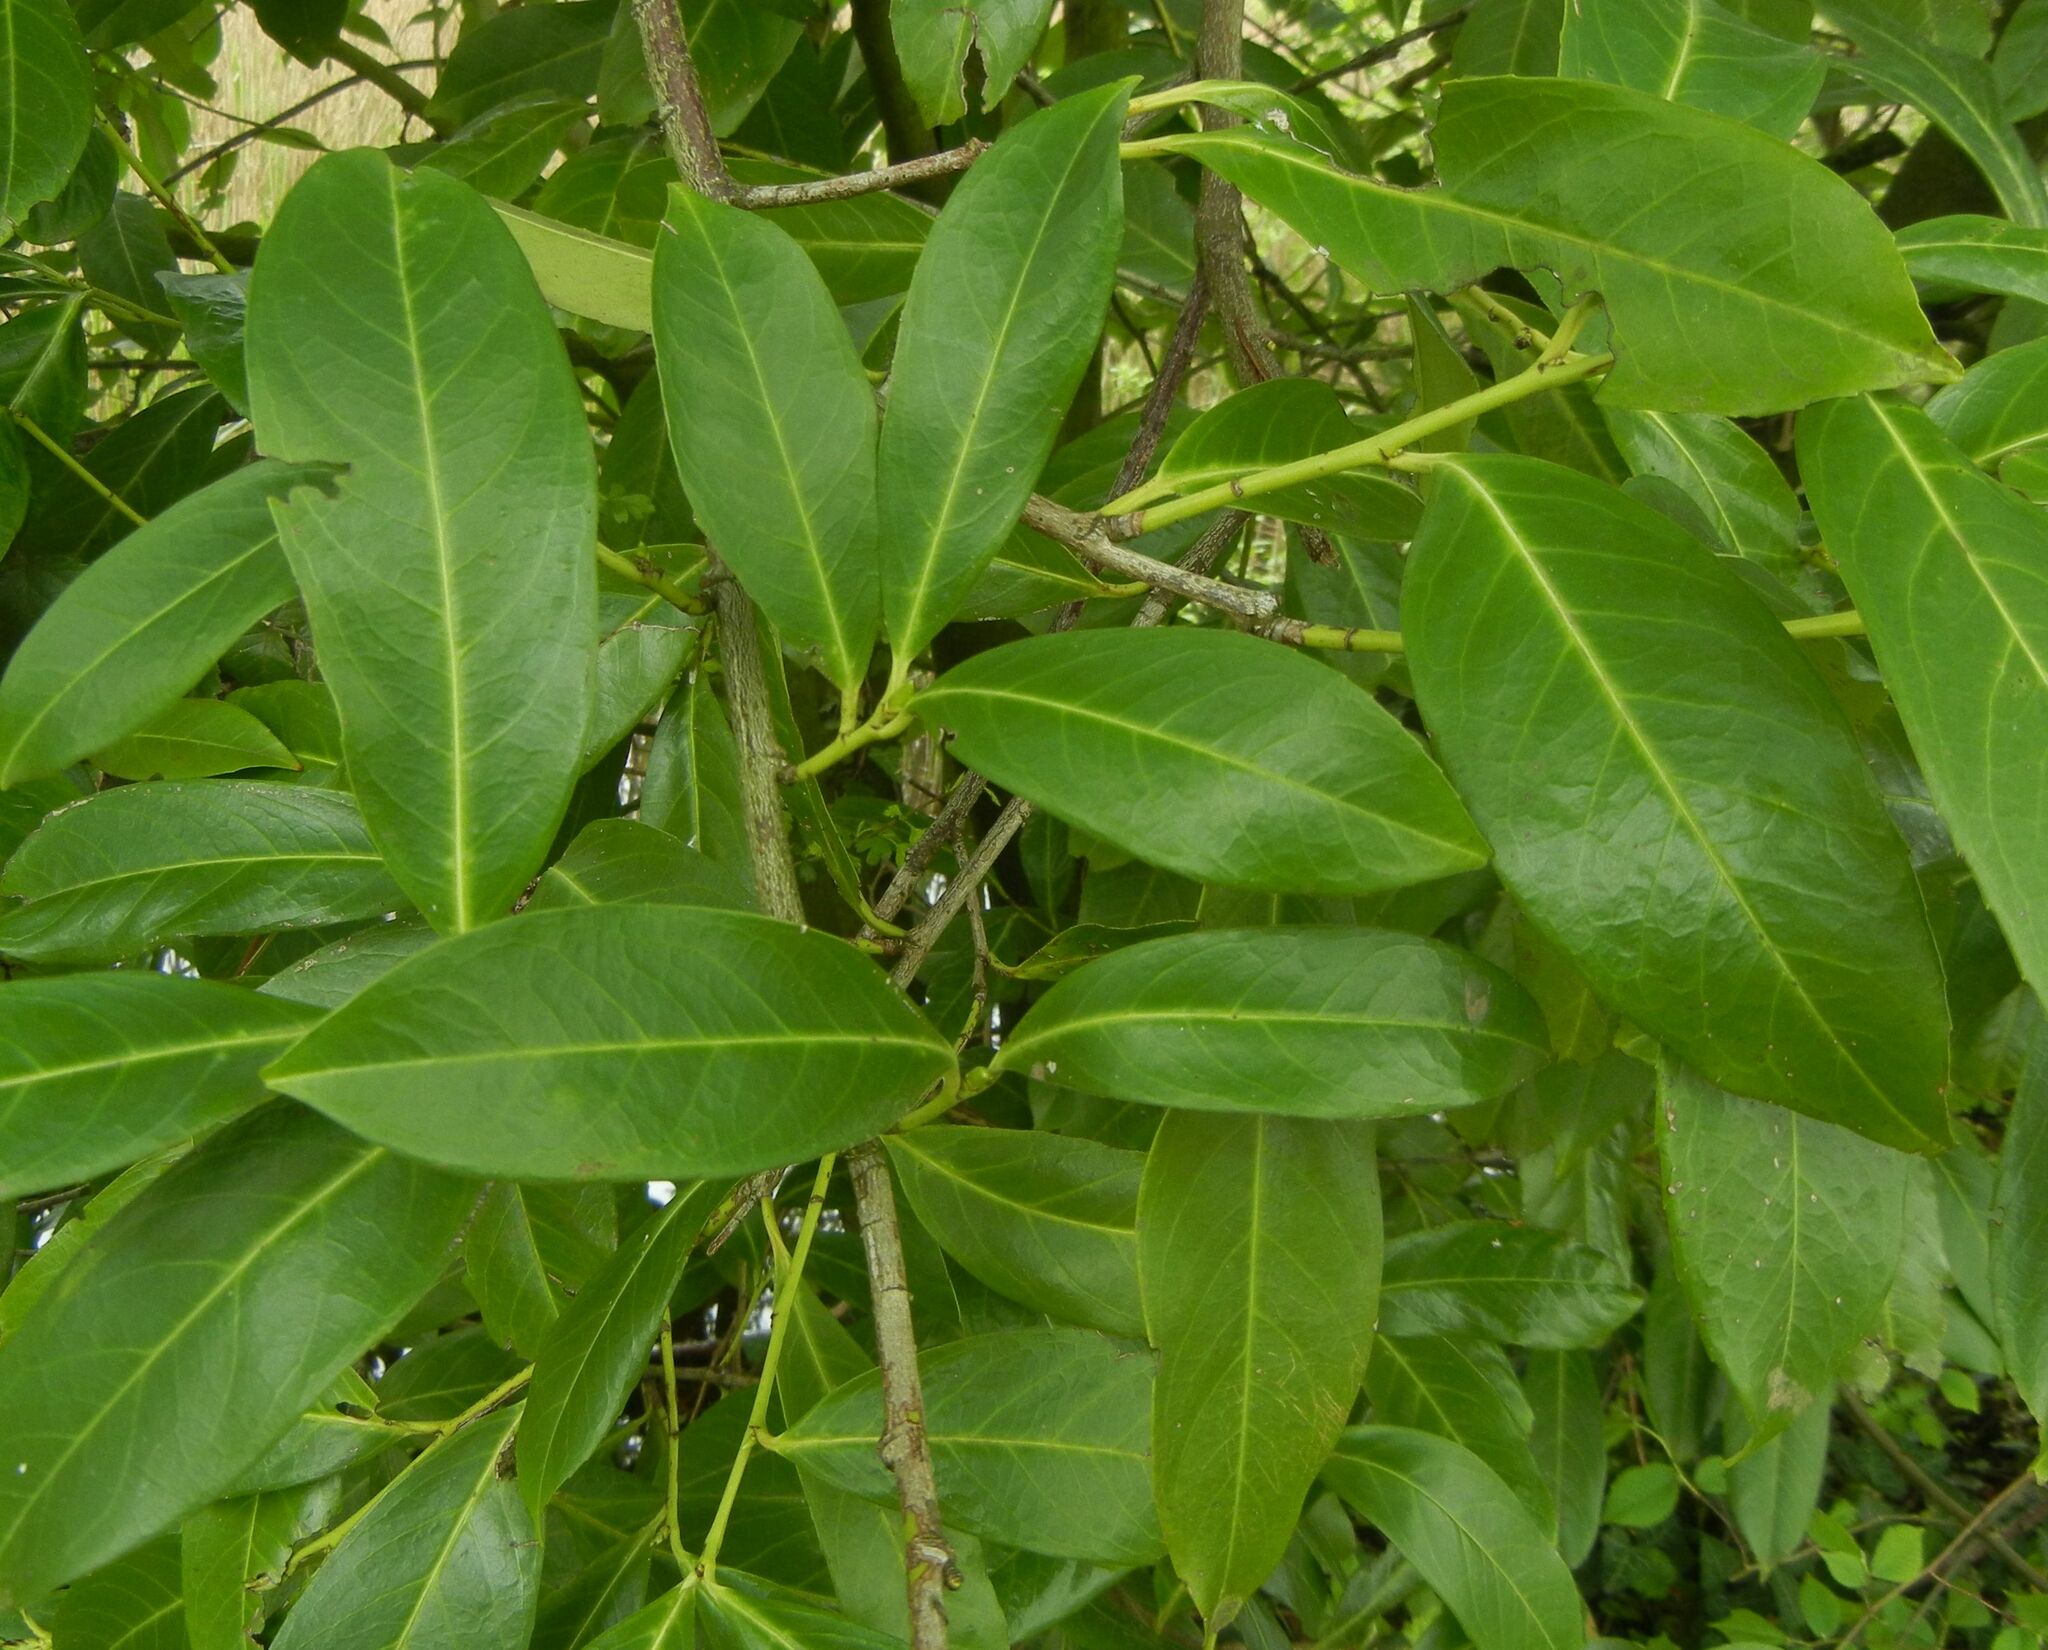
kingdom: Plantae
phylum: Tracheophyta
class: Magnoliopsida
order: Rosales
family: Rosaceae
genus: Prunus
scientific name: Prunus laurocerasus
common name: Cherry laurel
